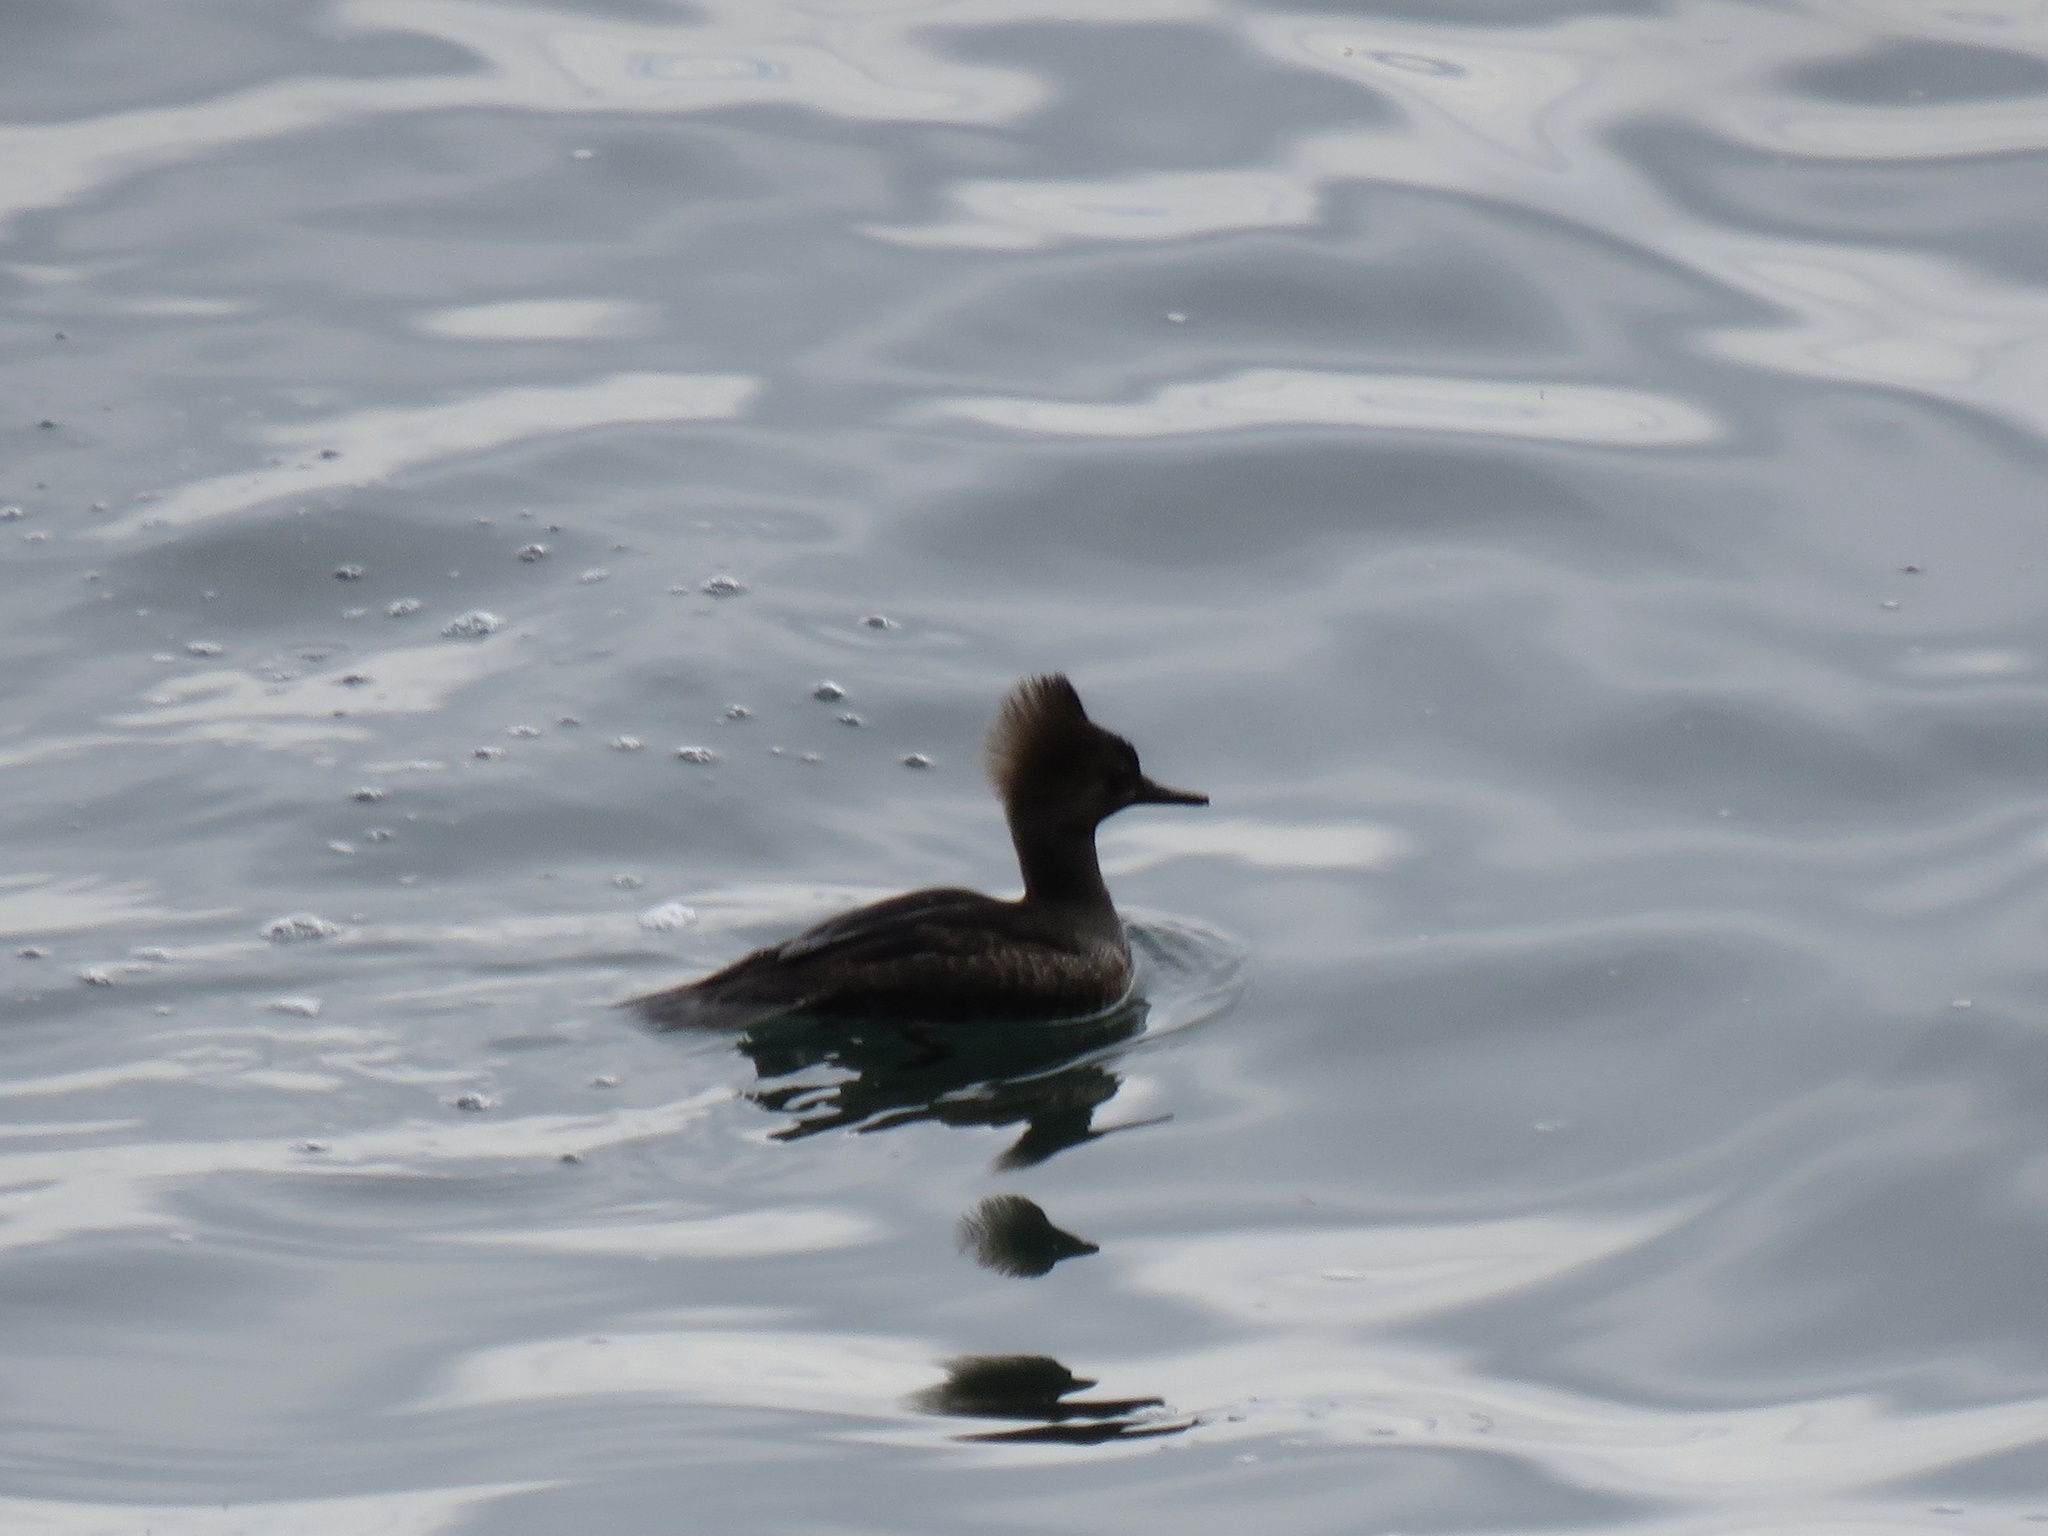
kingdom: Animalia
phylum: Chordata
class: Aves
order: Anseriformes
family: Anatidae
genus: Lophodytes
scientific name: Lophodytes cucullatus
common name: Hooded merganser
